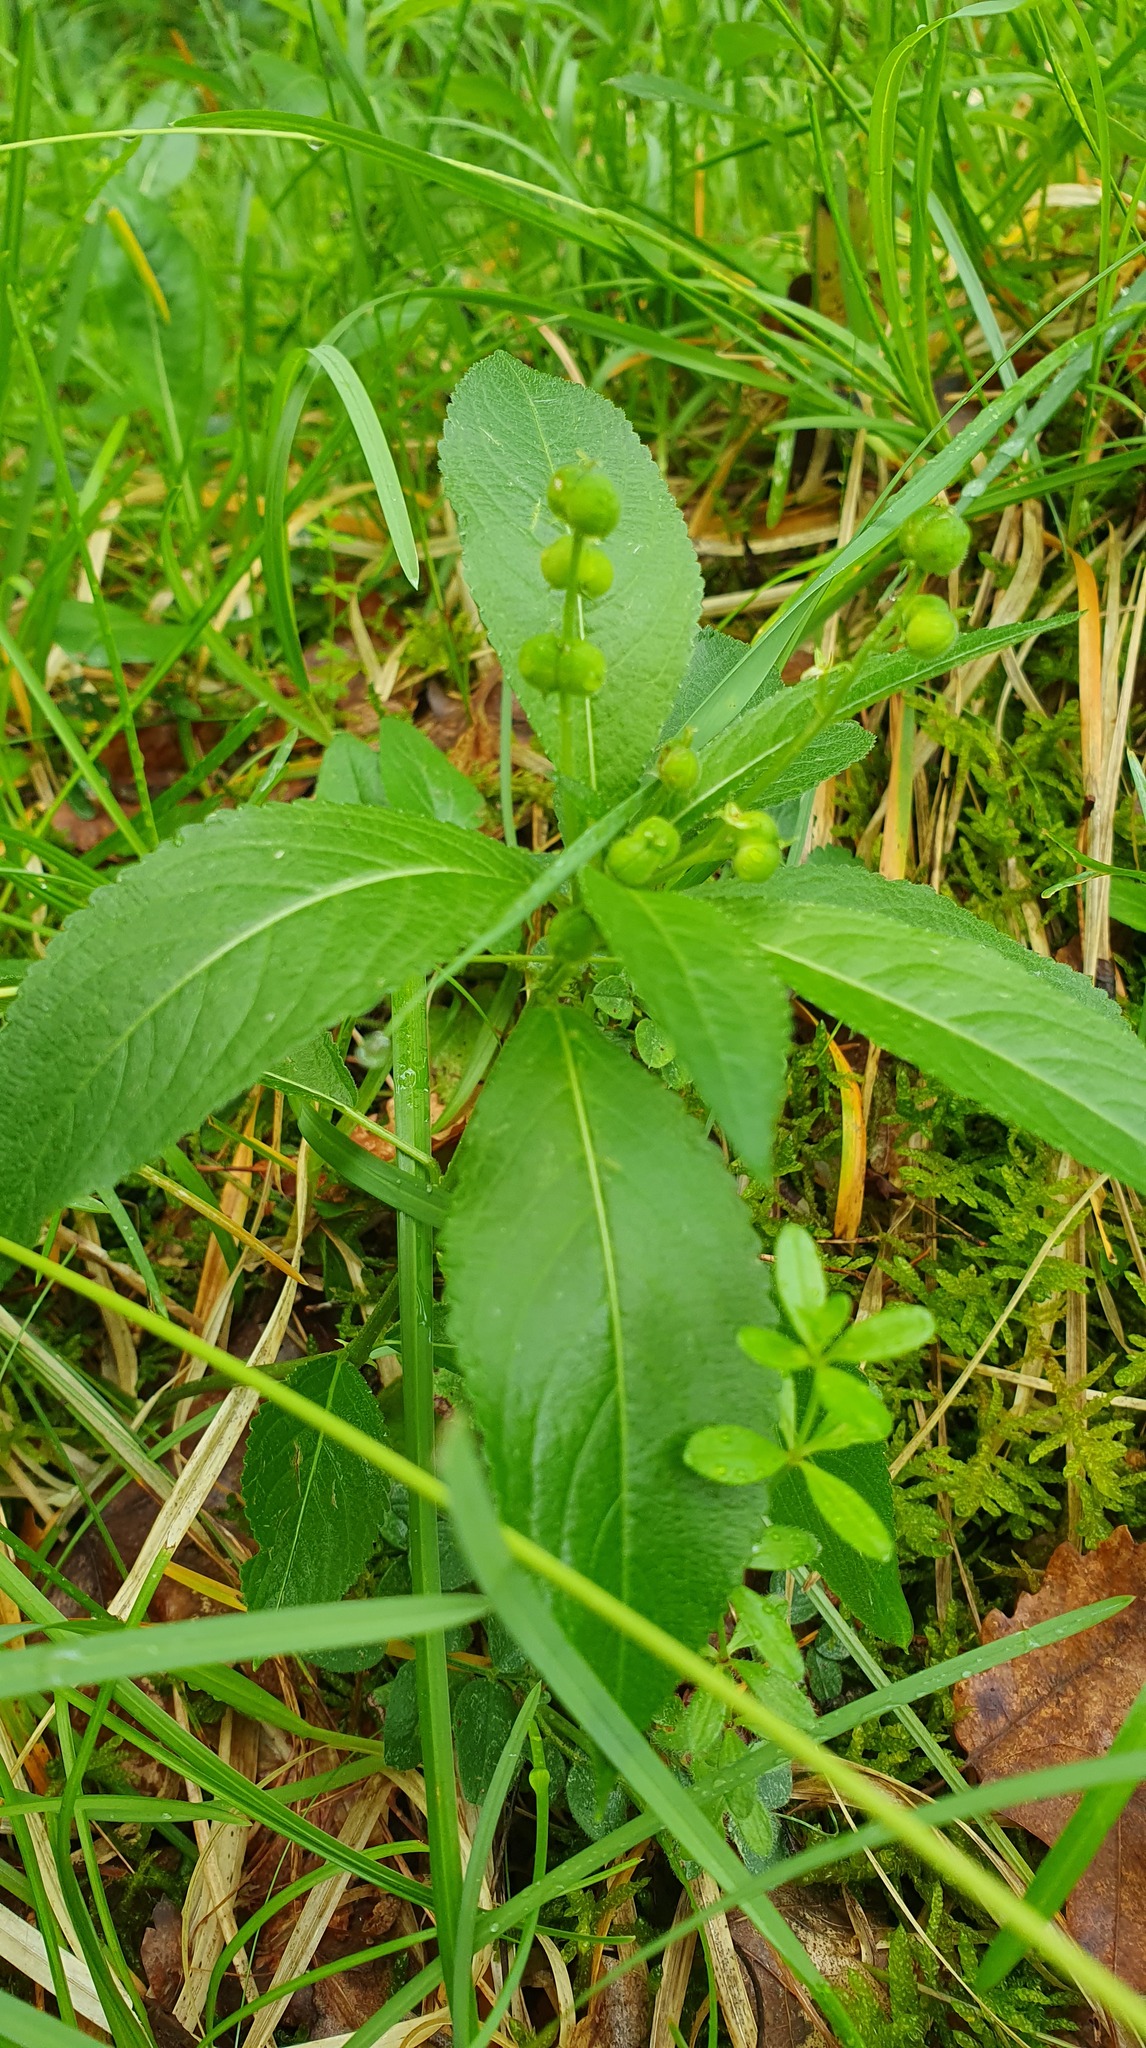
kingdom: Plantae
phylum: Tracheophyta
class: Magnoliopsida
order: Malpighiales
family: Euphorbiaceae
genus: Mercurialis
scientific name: Mercurialis perennis
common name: Dog mercury
